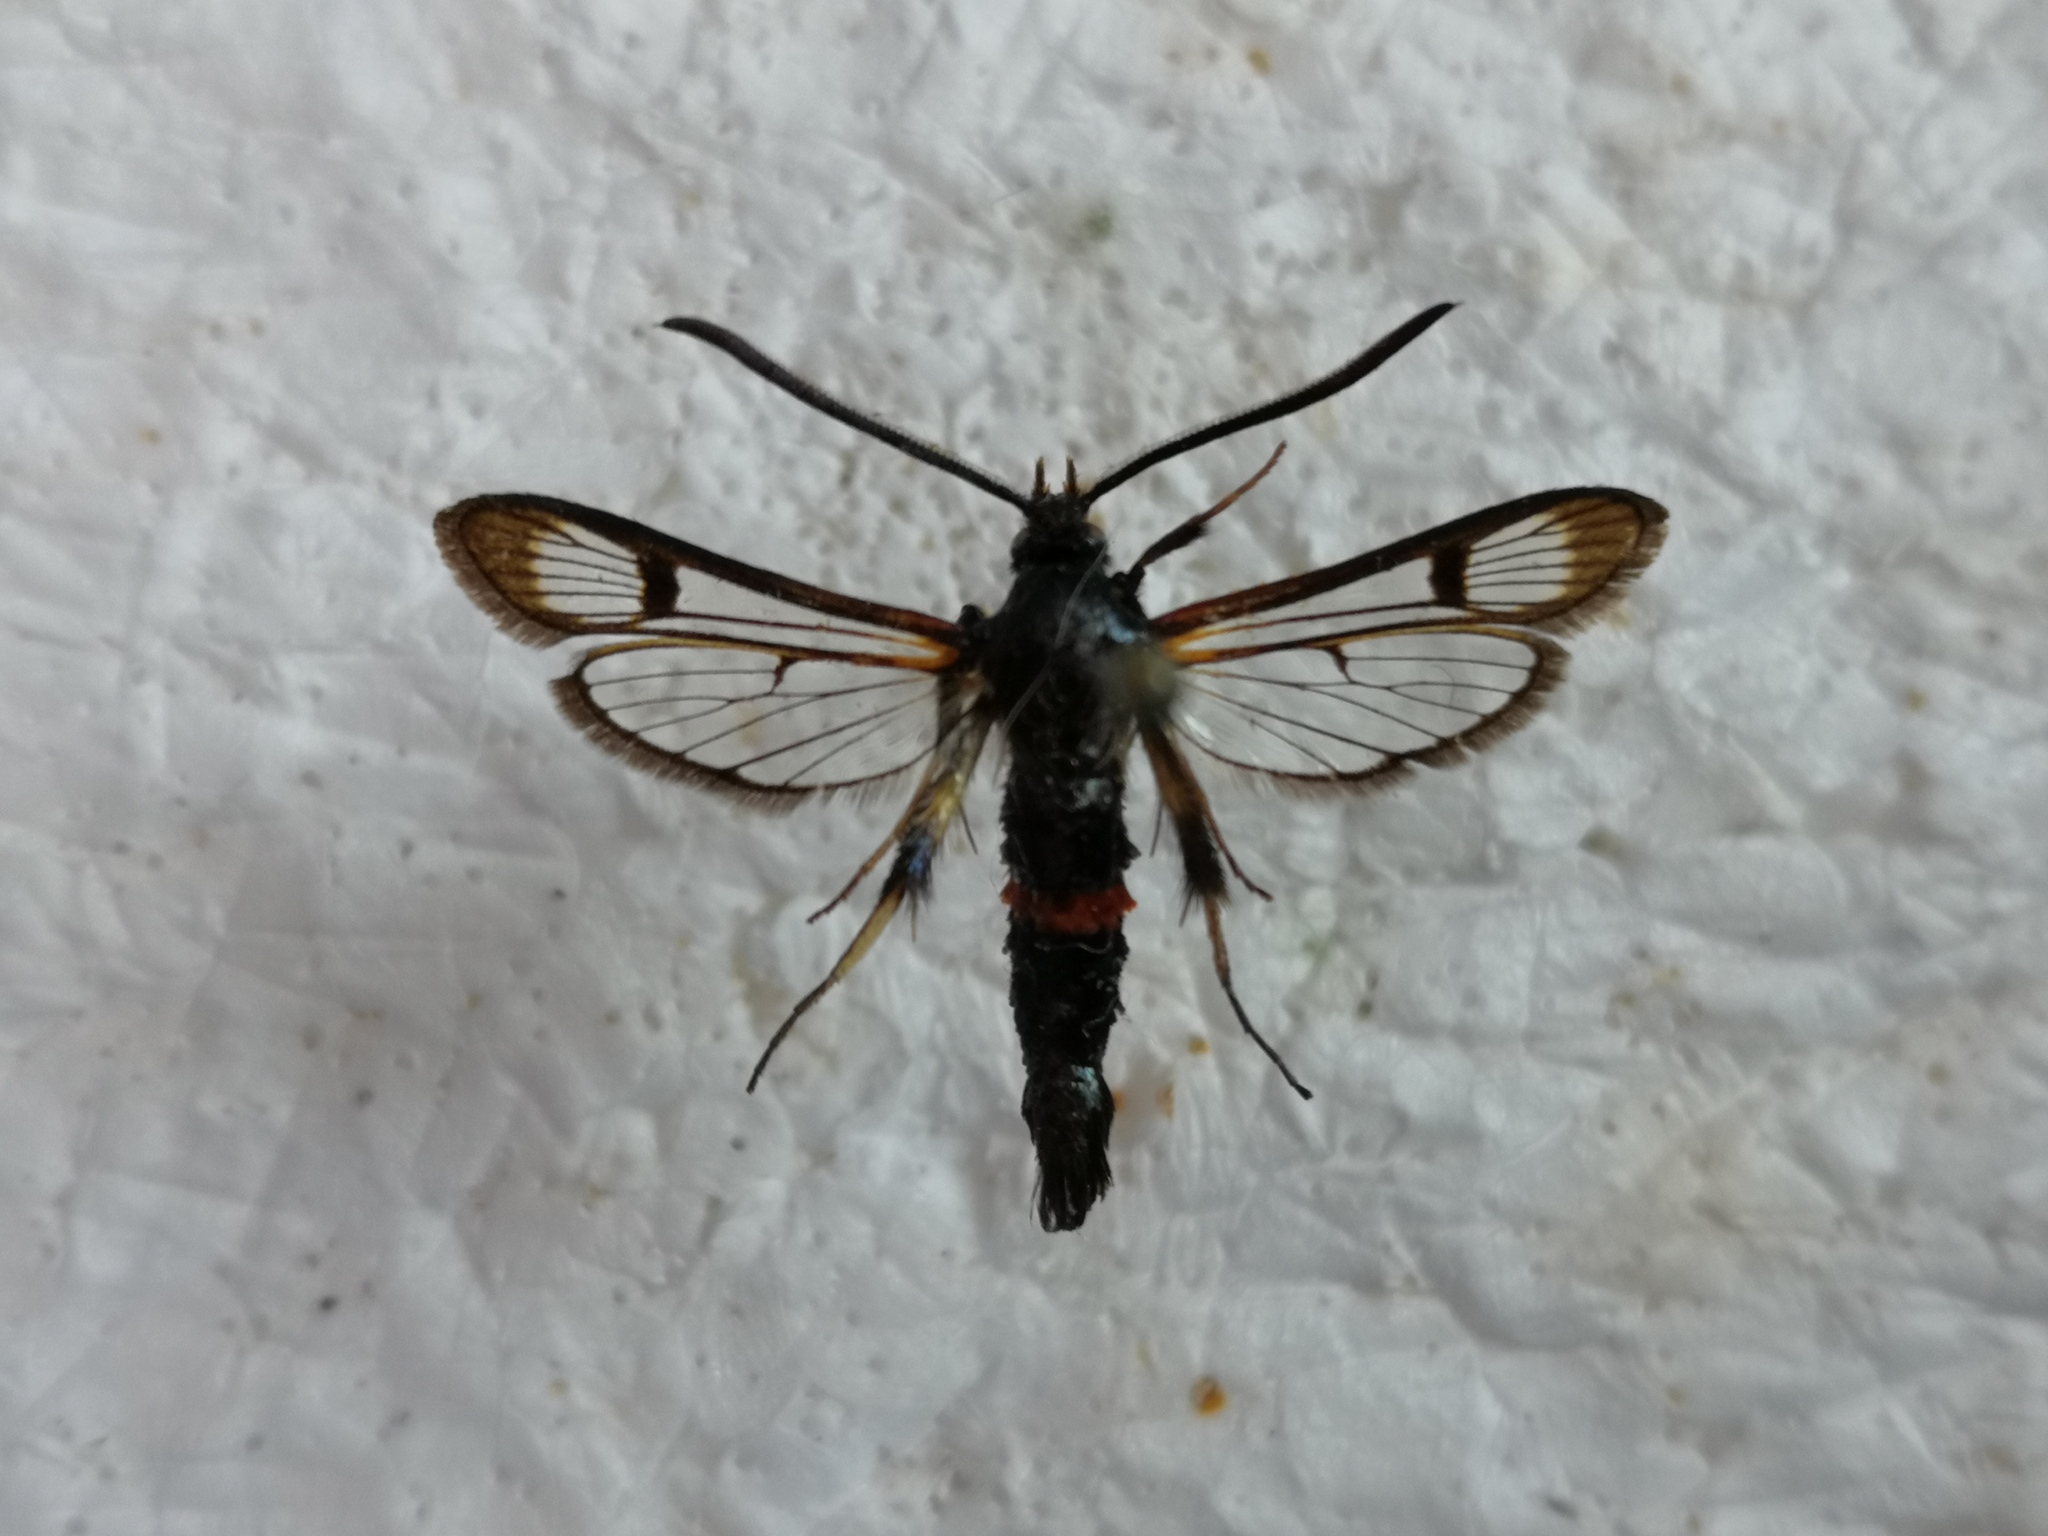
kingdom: Animalia
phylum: Arthropoda
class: Insecta
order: Lepidoptera
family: Sesiidae
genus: Synanthedon
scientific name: Synanthedon culiciformis
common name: Large red-belted clearwing
